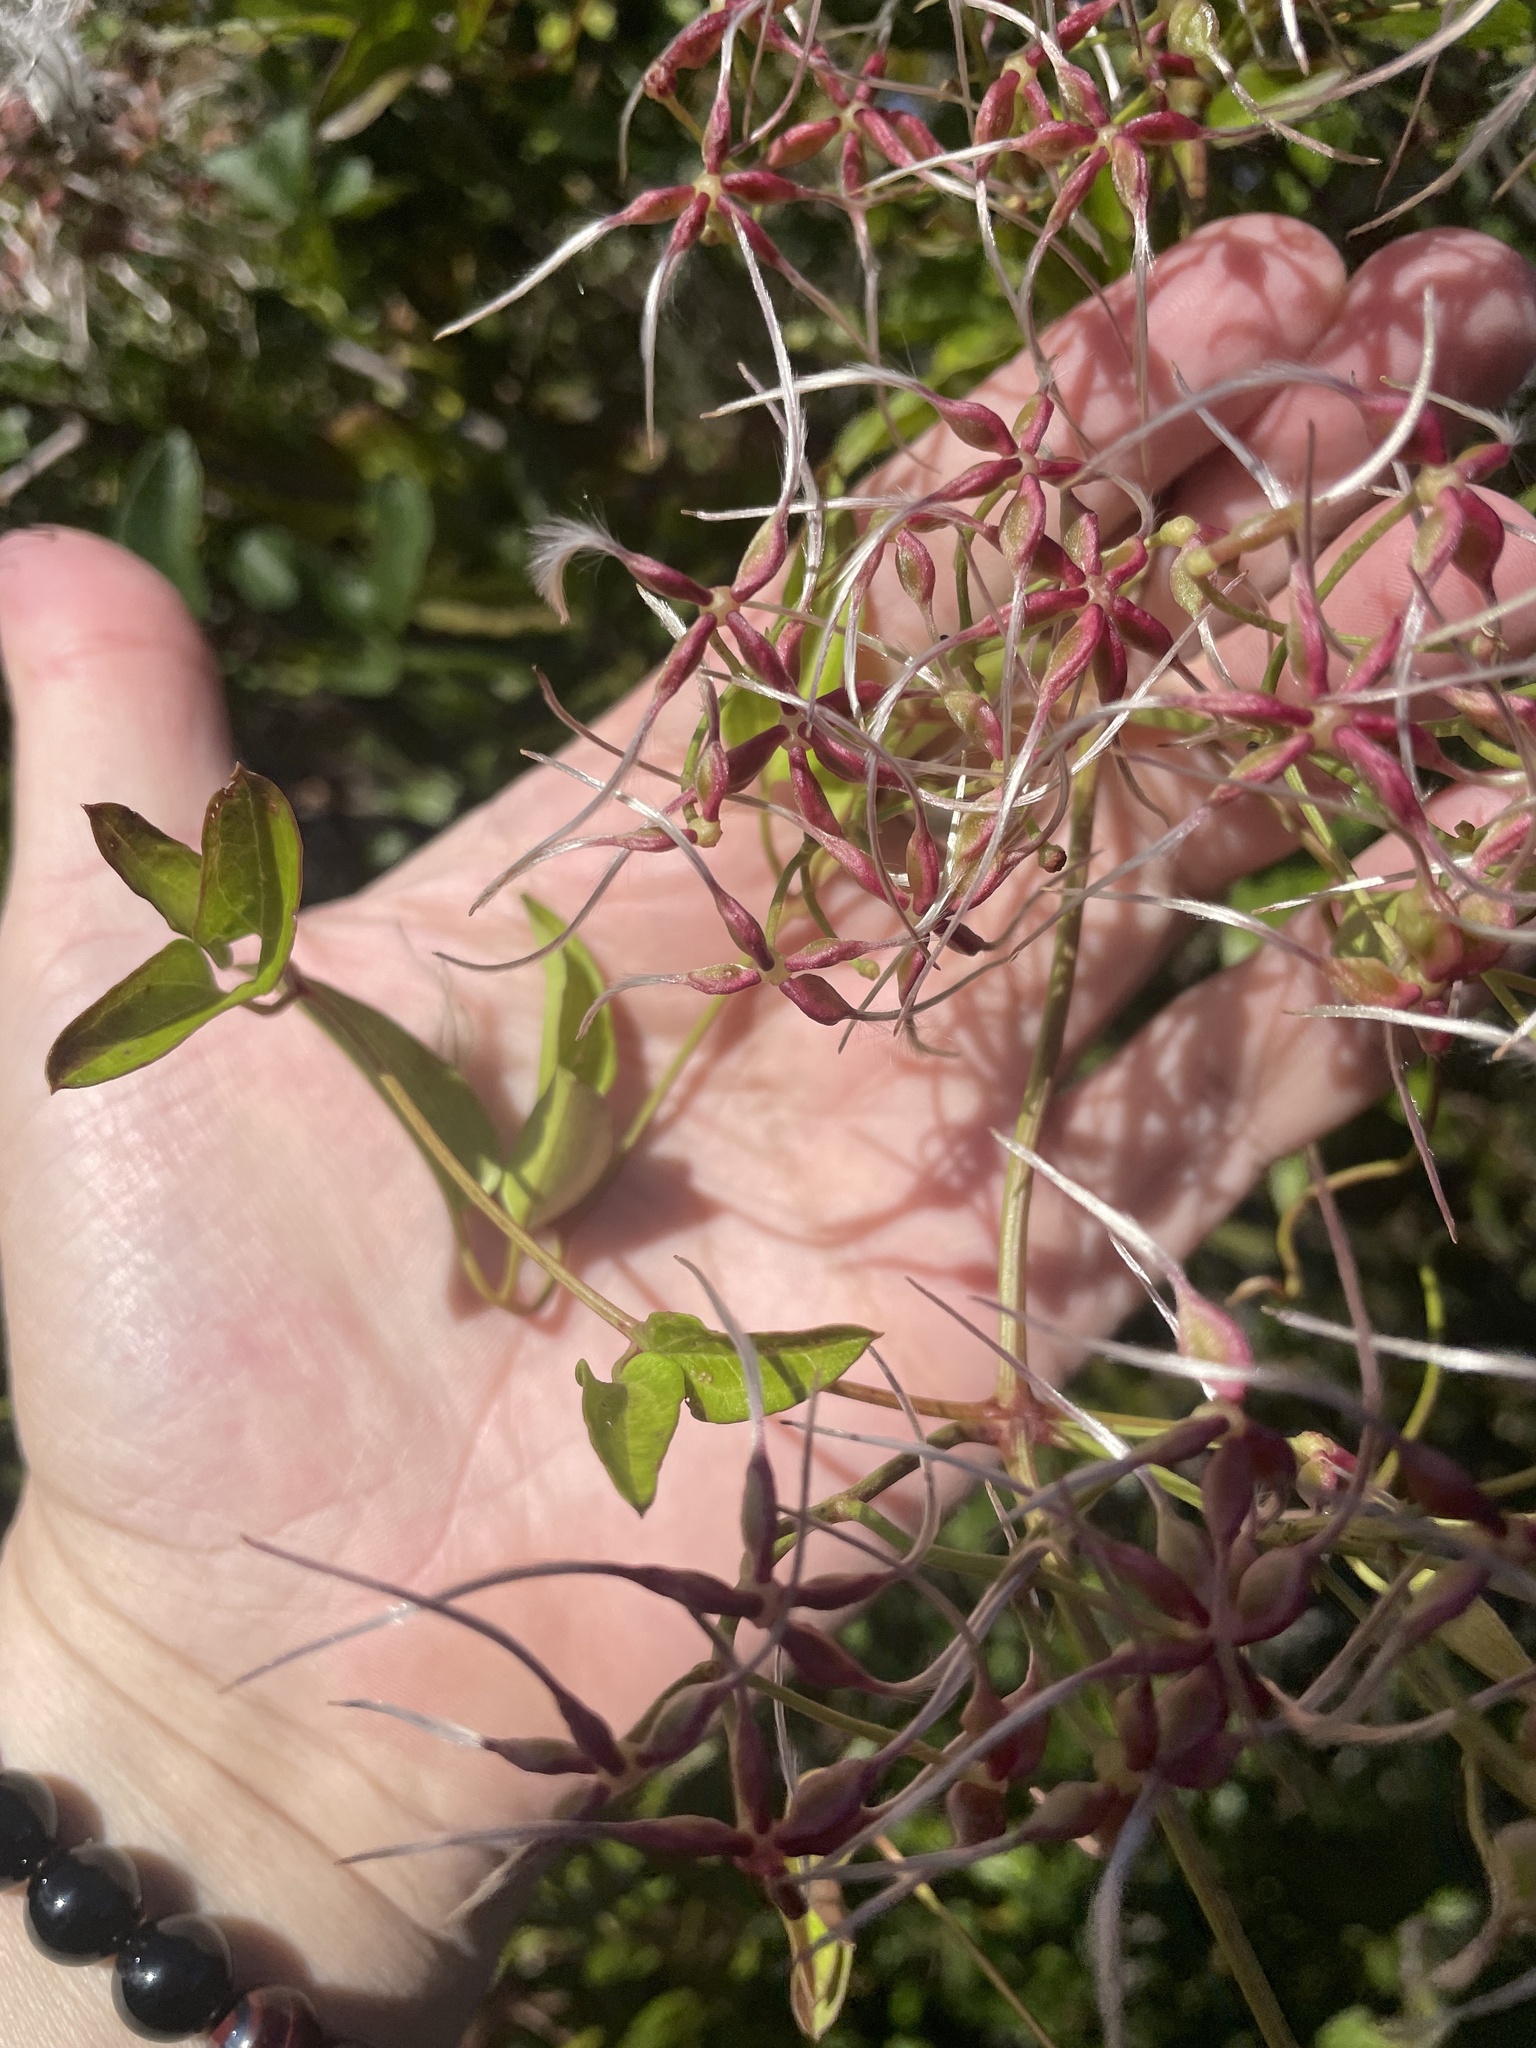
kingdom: Plantae
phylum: Tracheophyta
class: Magnoliopsida
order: Ranunculales
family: Ranunculaceae
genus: Clematis
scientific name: Clematis terniflora
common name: Sweet autumn clematis
